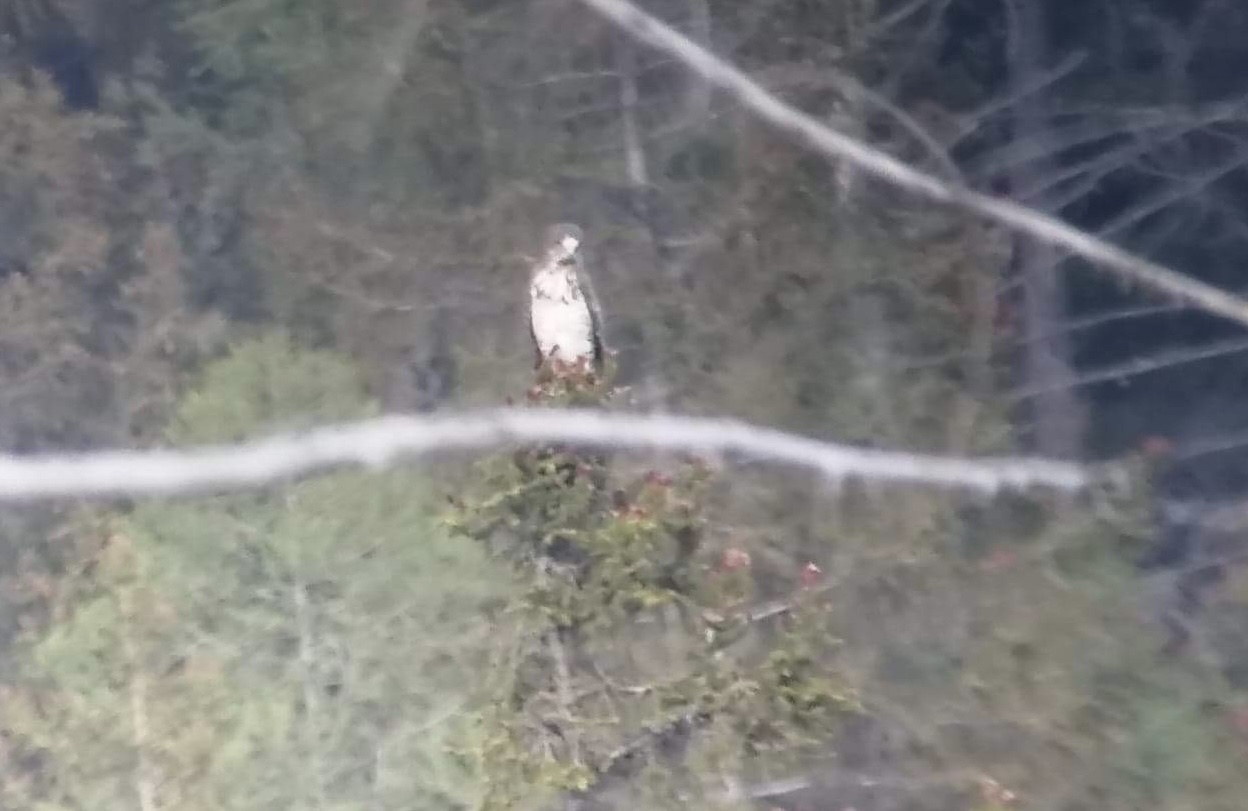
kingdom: Animalia
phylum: Chordata
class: Aves
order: Accipitriformes
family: Accipitridae
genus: Circaetus
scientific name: Circaetus gallicus
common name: Short-toed snake eagle
